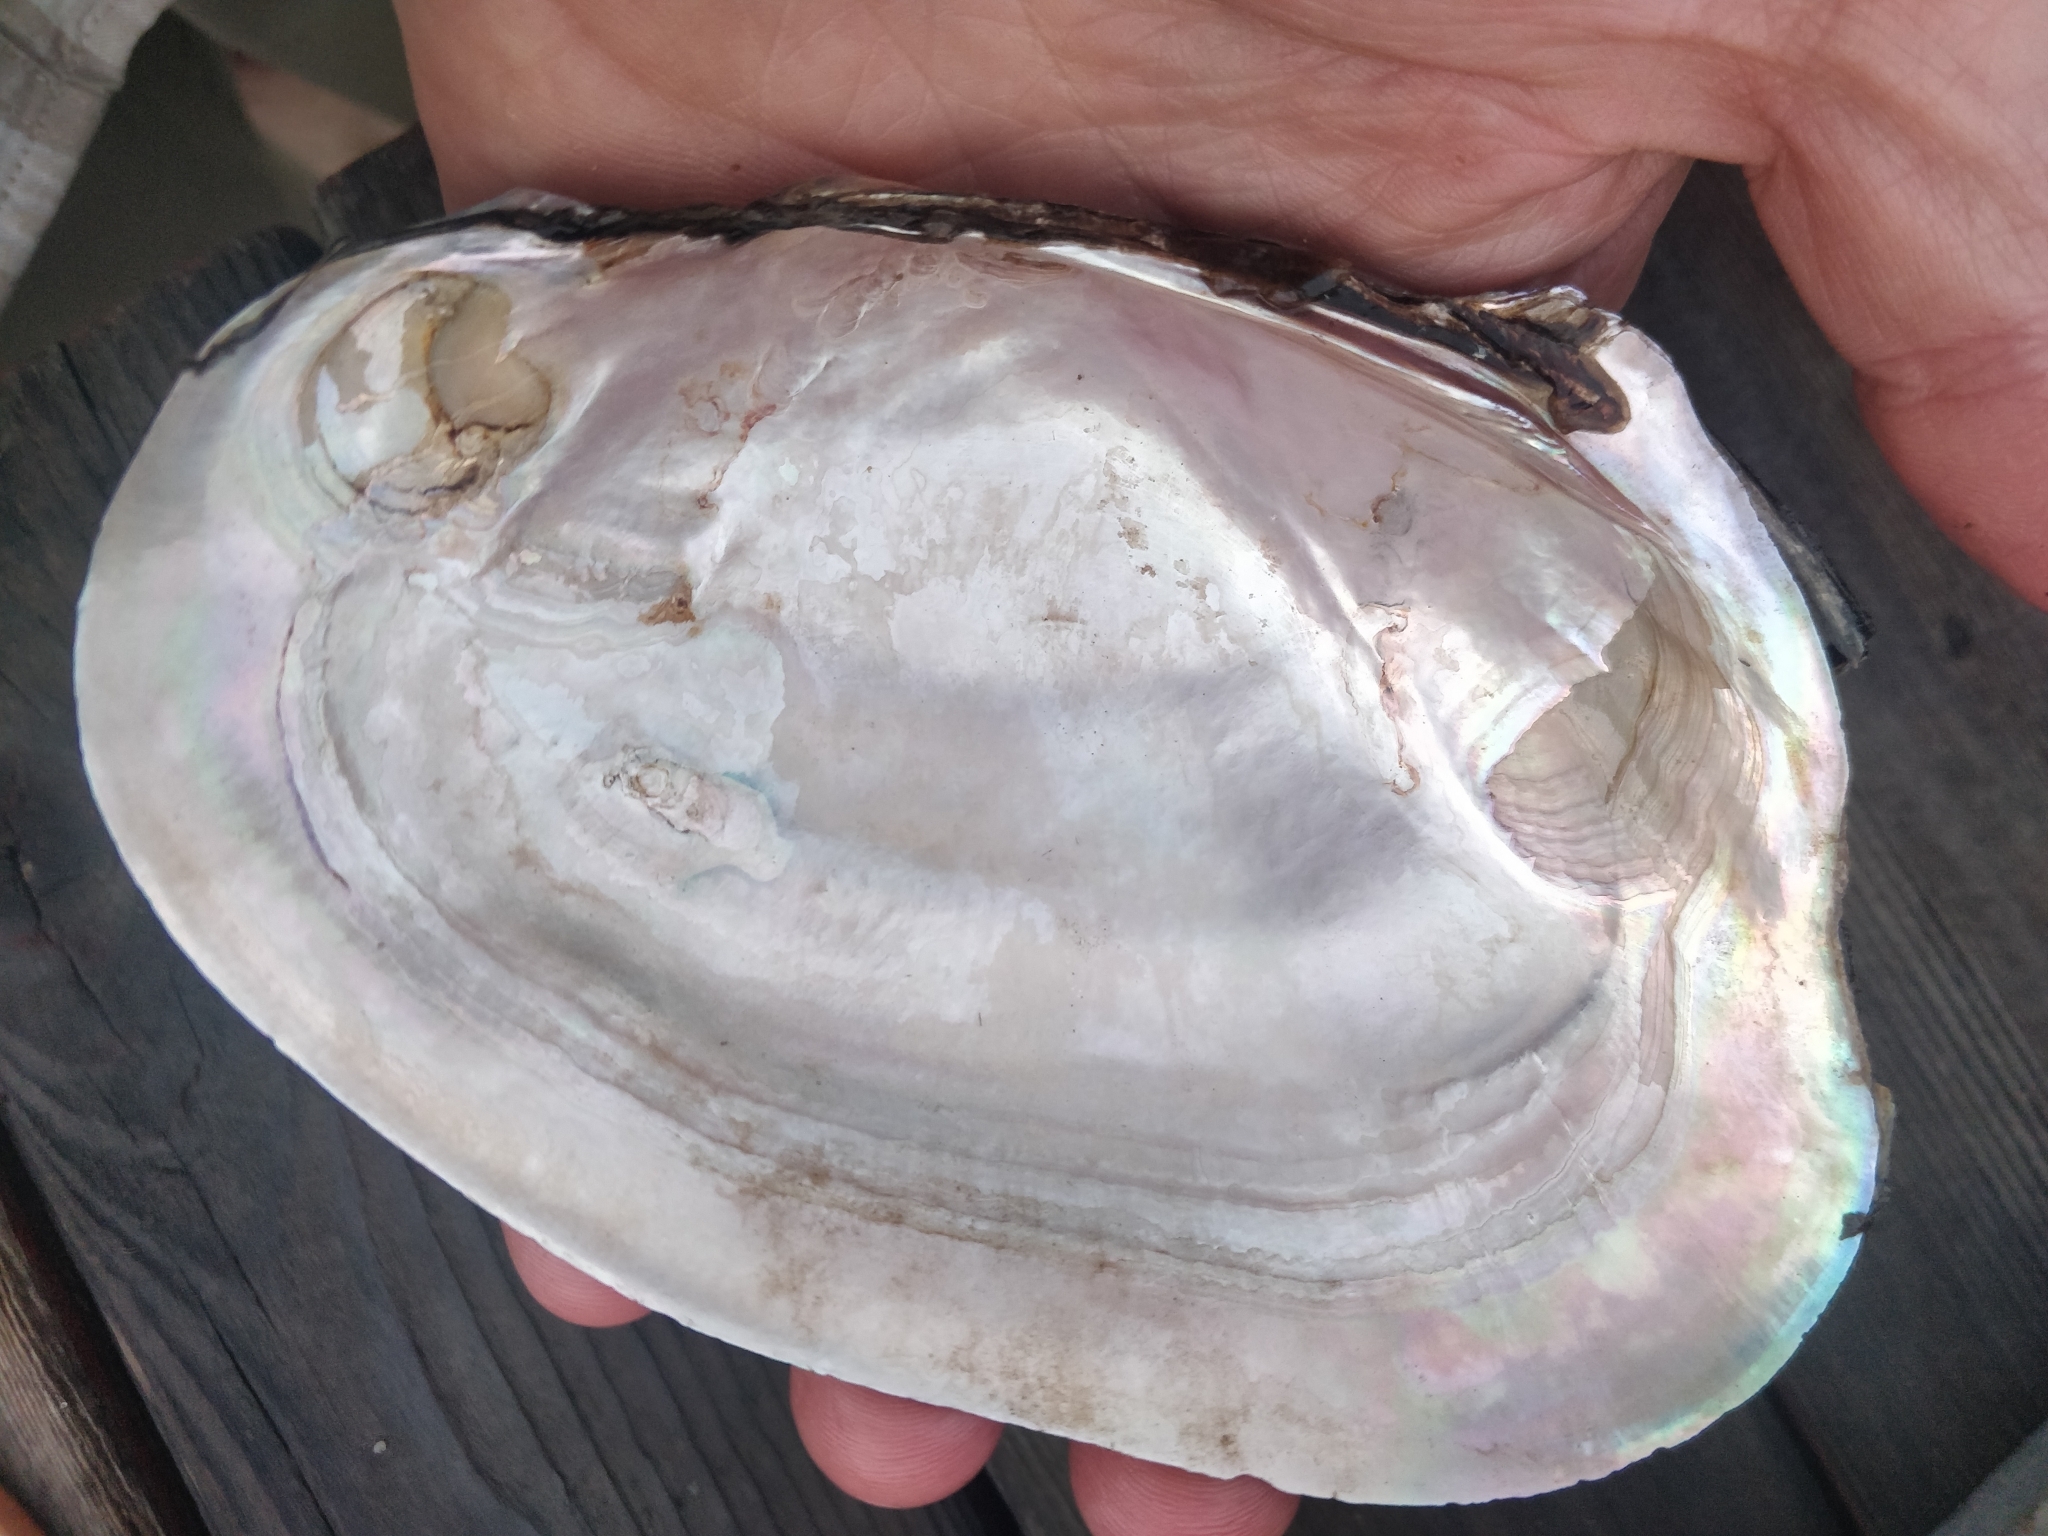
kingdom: Animalia
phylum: Mollusca
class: Bivalvia
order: Unionida
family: Unionidae
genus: Potamilus
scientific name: Potamilus ohiensis
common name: Pink papershell
